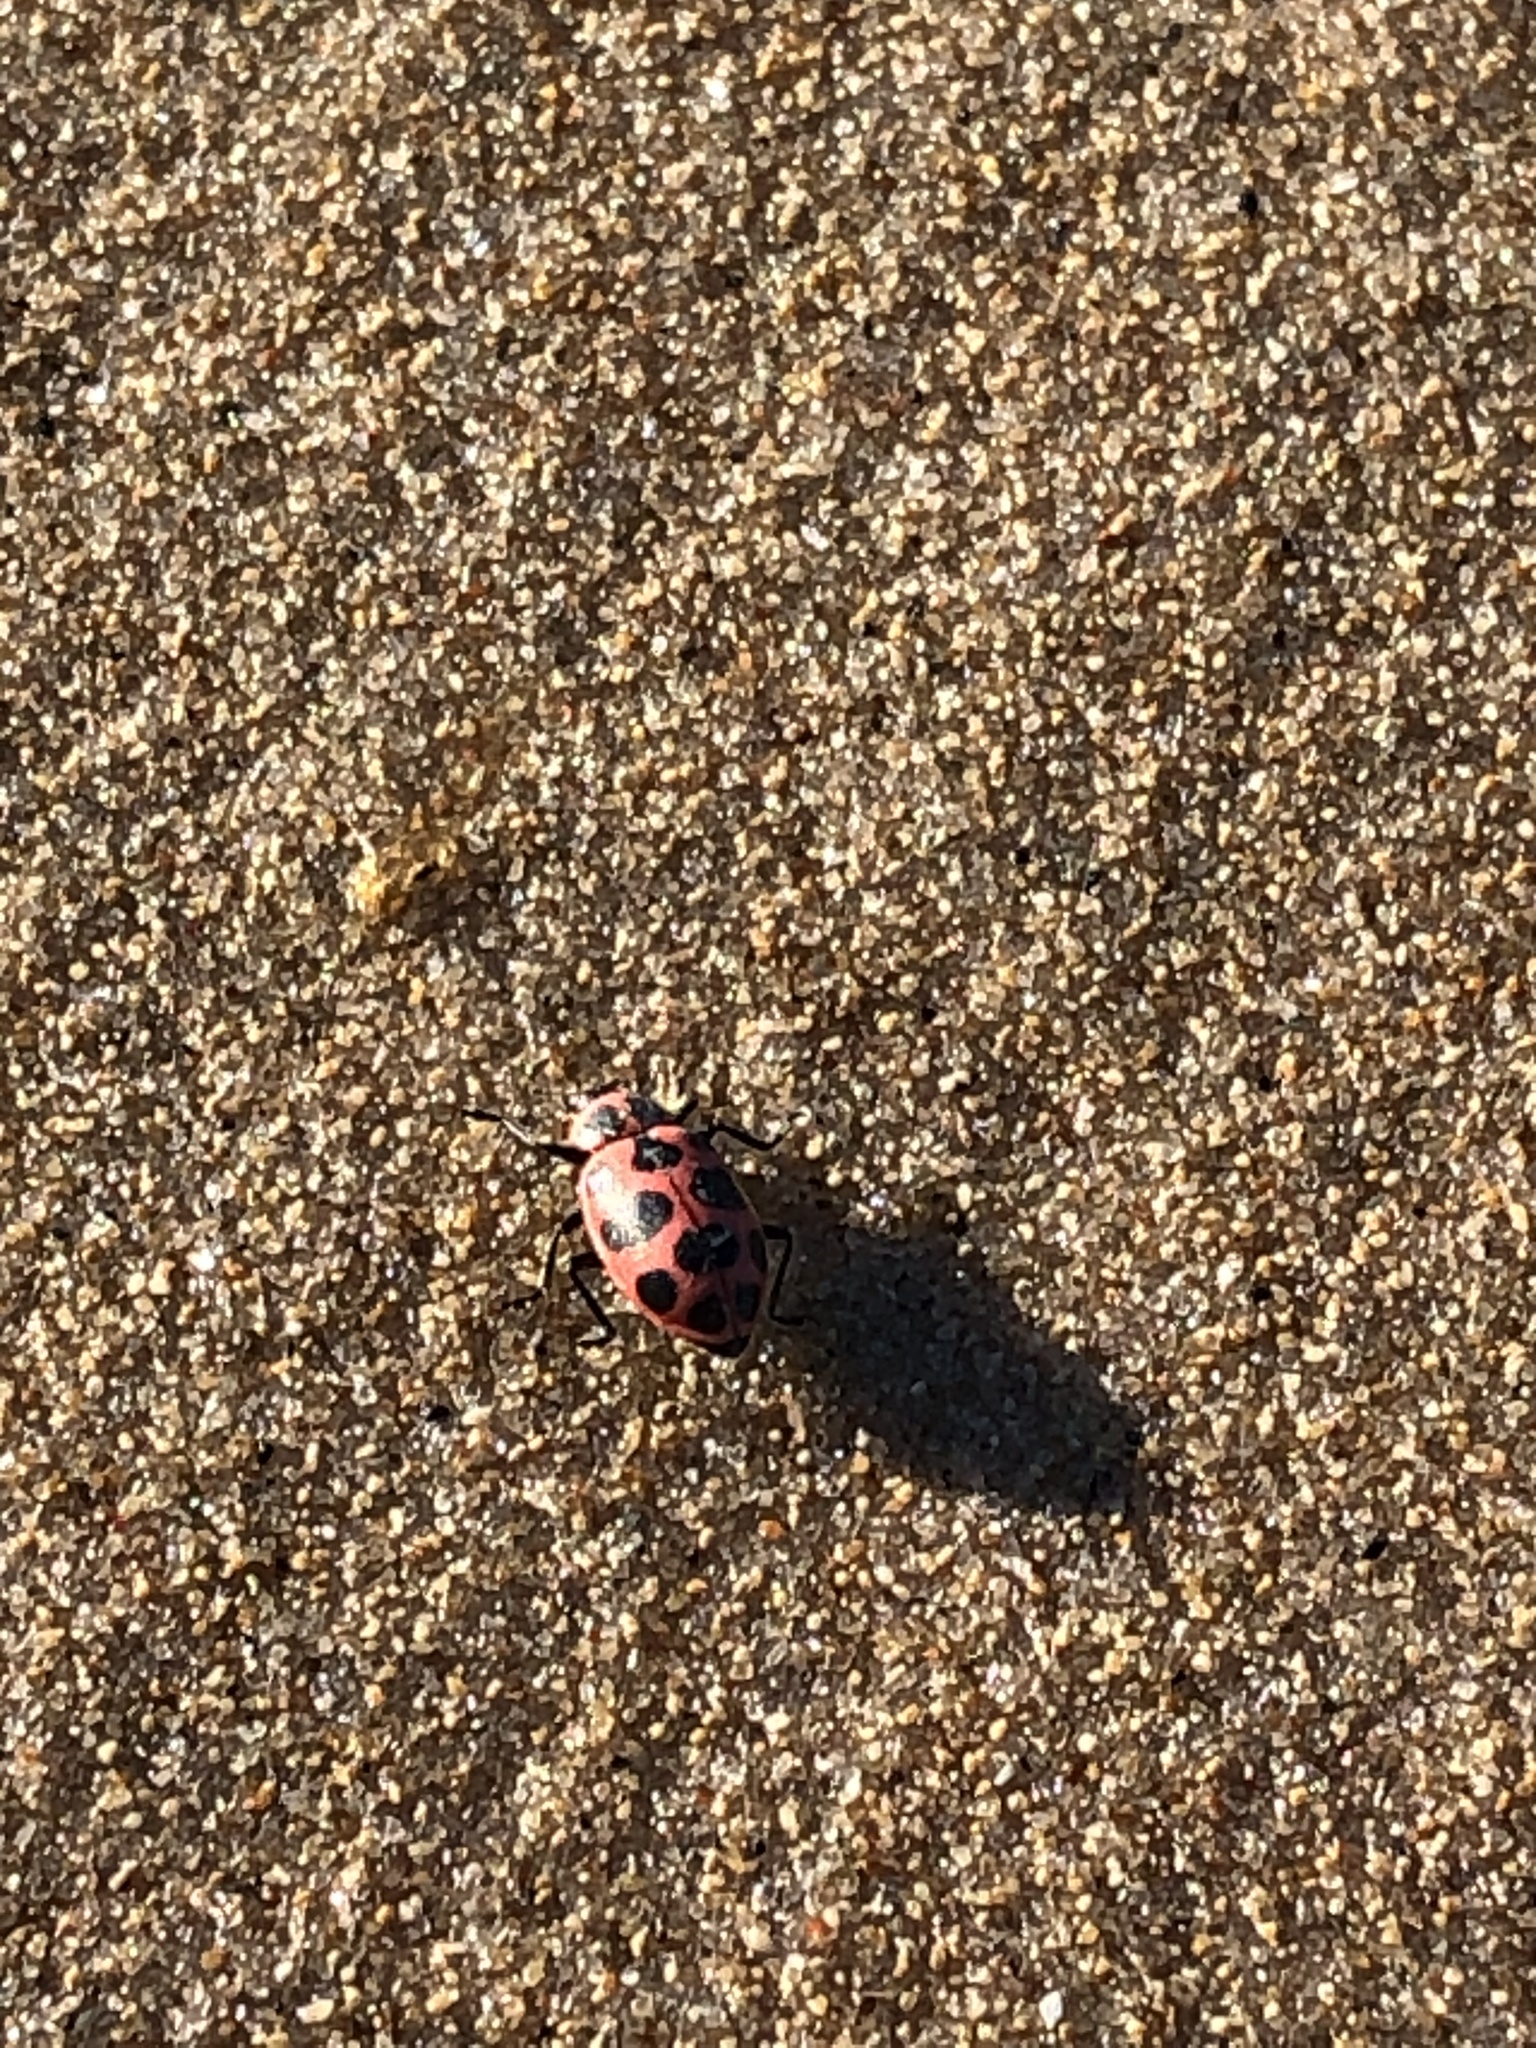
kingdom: Animalia
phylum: Arthropoda
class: Insecta
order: Coleoptera
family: Coccinellidae
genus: Coleomegilla
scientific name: Coleomegilla maculata
